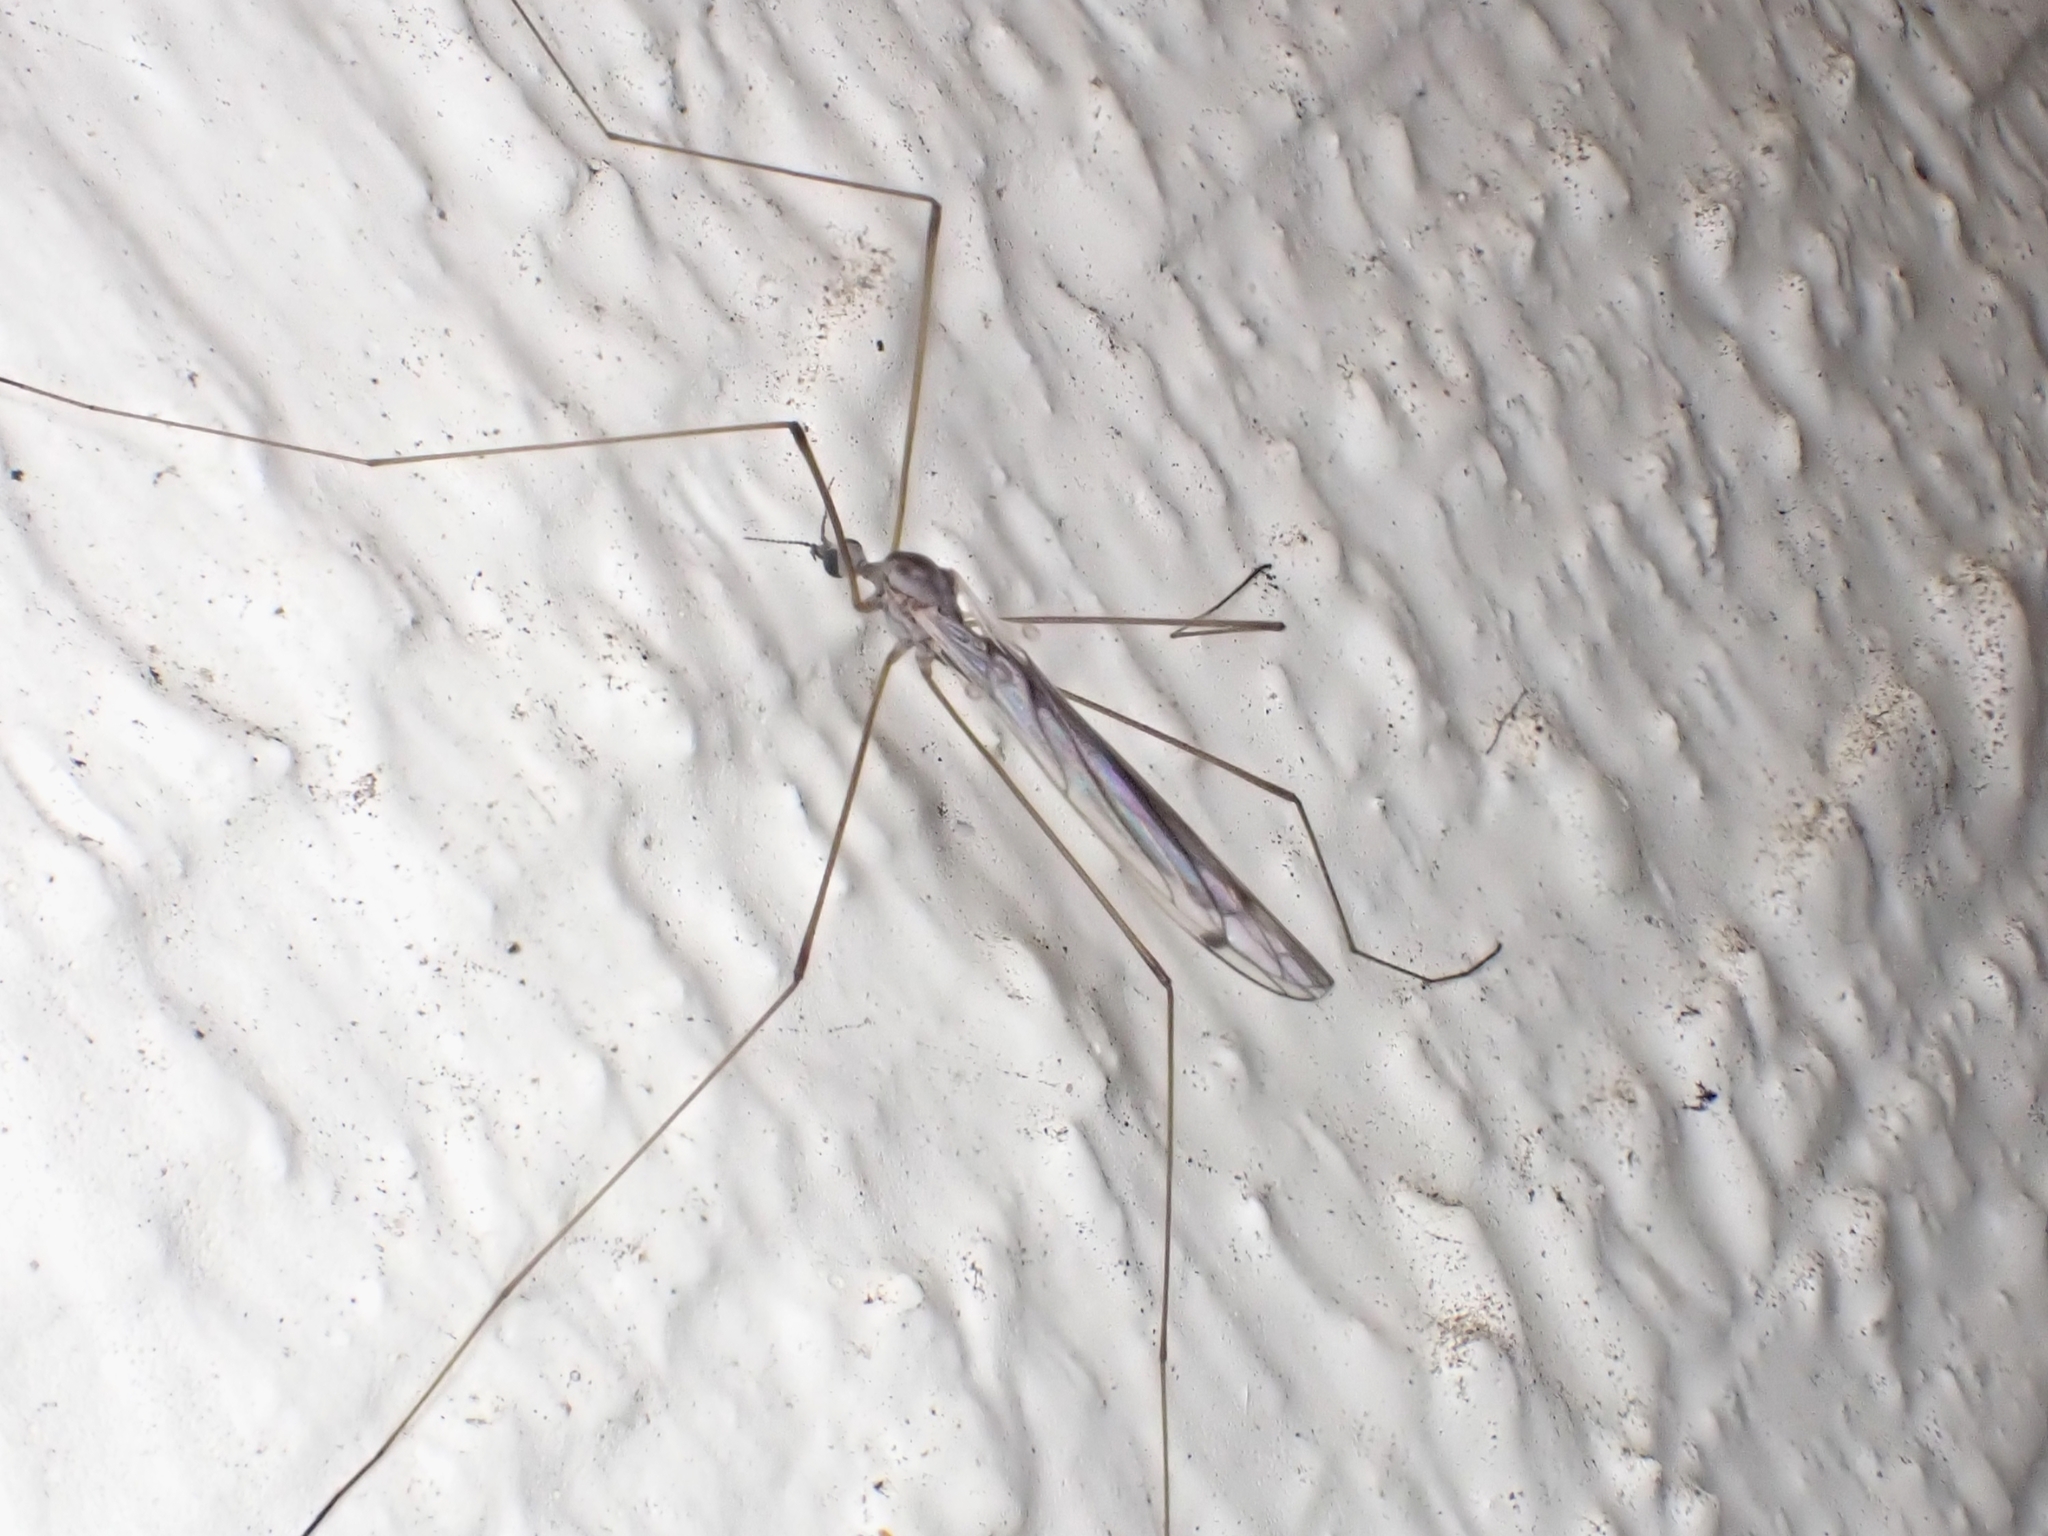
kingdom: Animalia
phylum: Arthropoda
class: Insecta
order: Diptera
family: Limoniidae
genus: Dicranomyia
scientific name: Dicranomyia aegrotans
